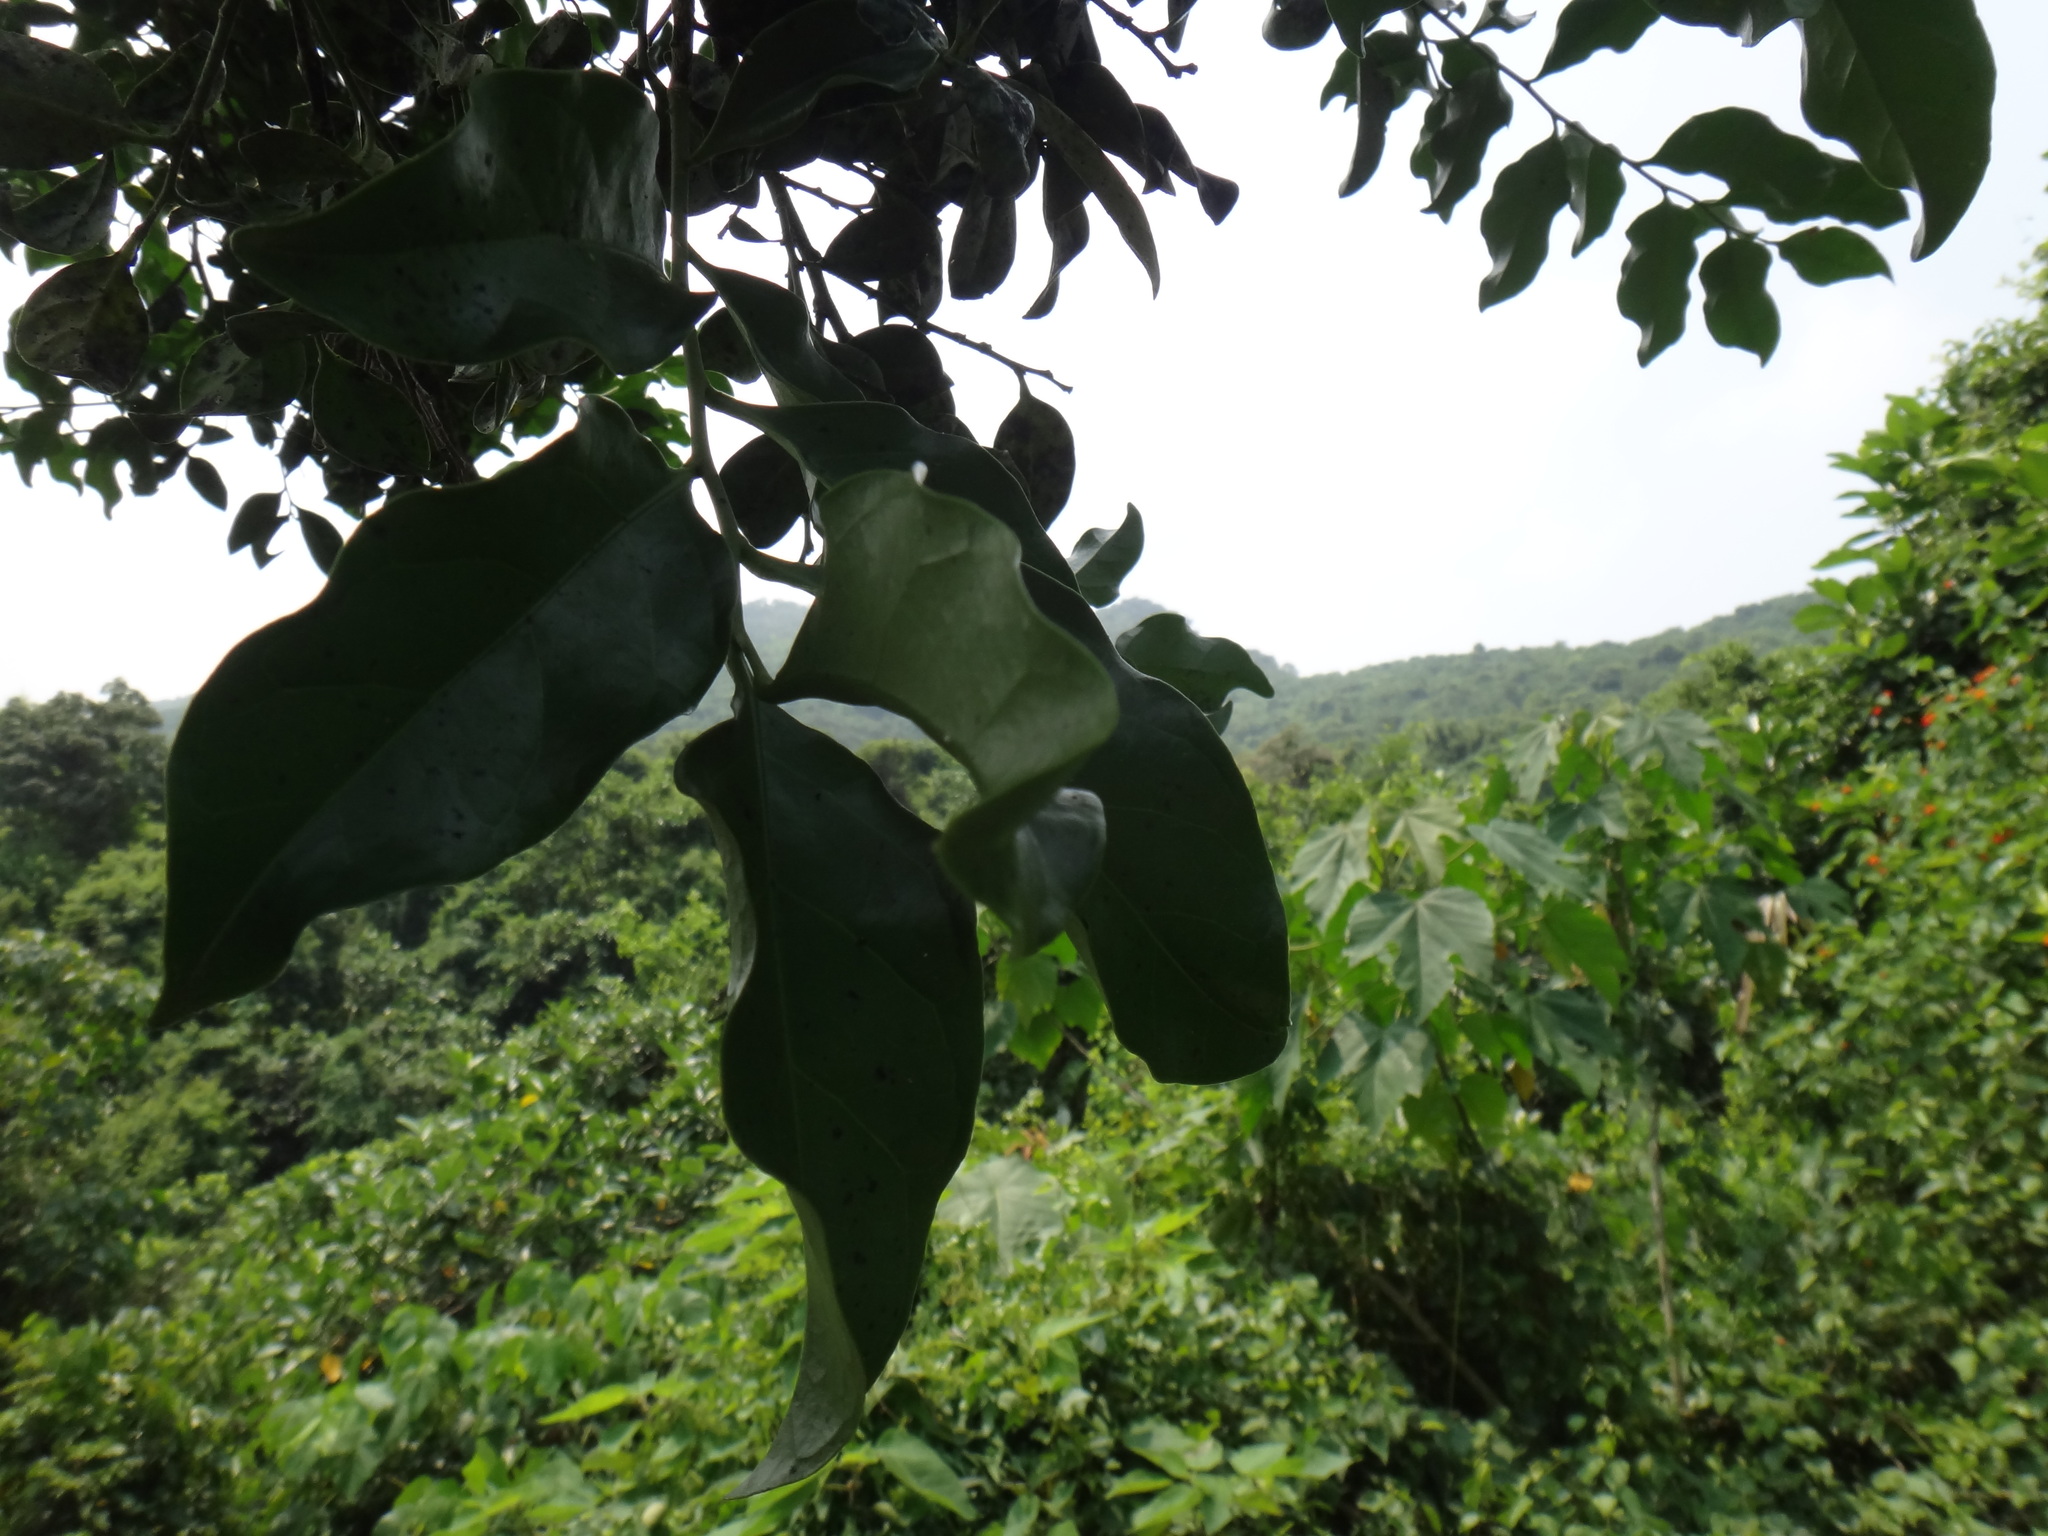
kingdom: Plantae
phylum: Tracheophyta
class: Magnoliopsida
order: Santalales
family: Opiliaceae
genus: Champereia
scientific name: Champereia manillana
